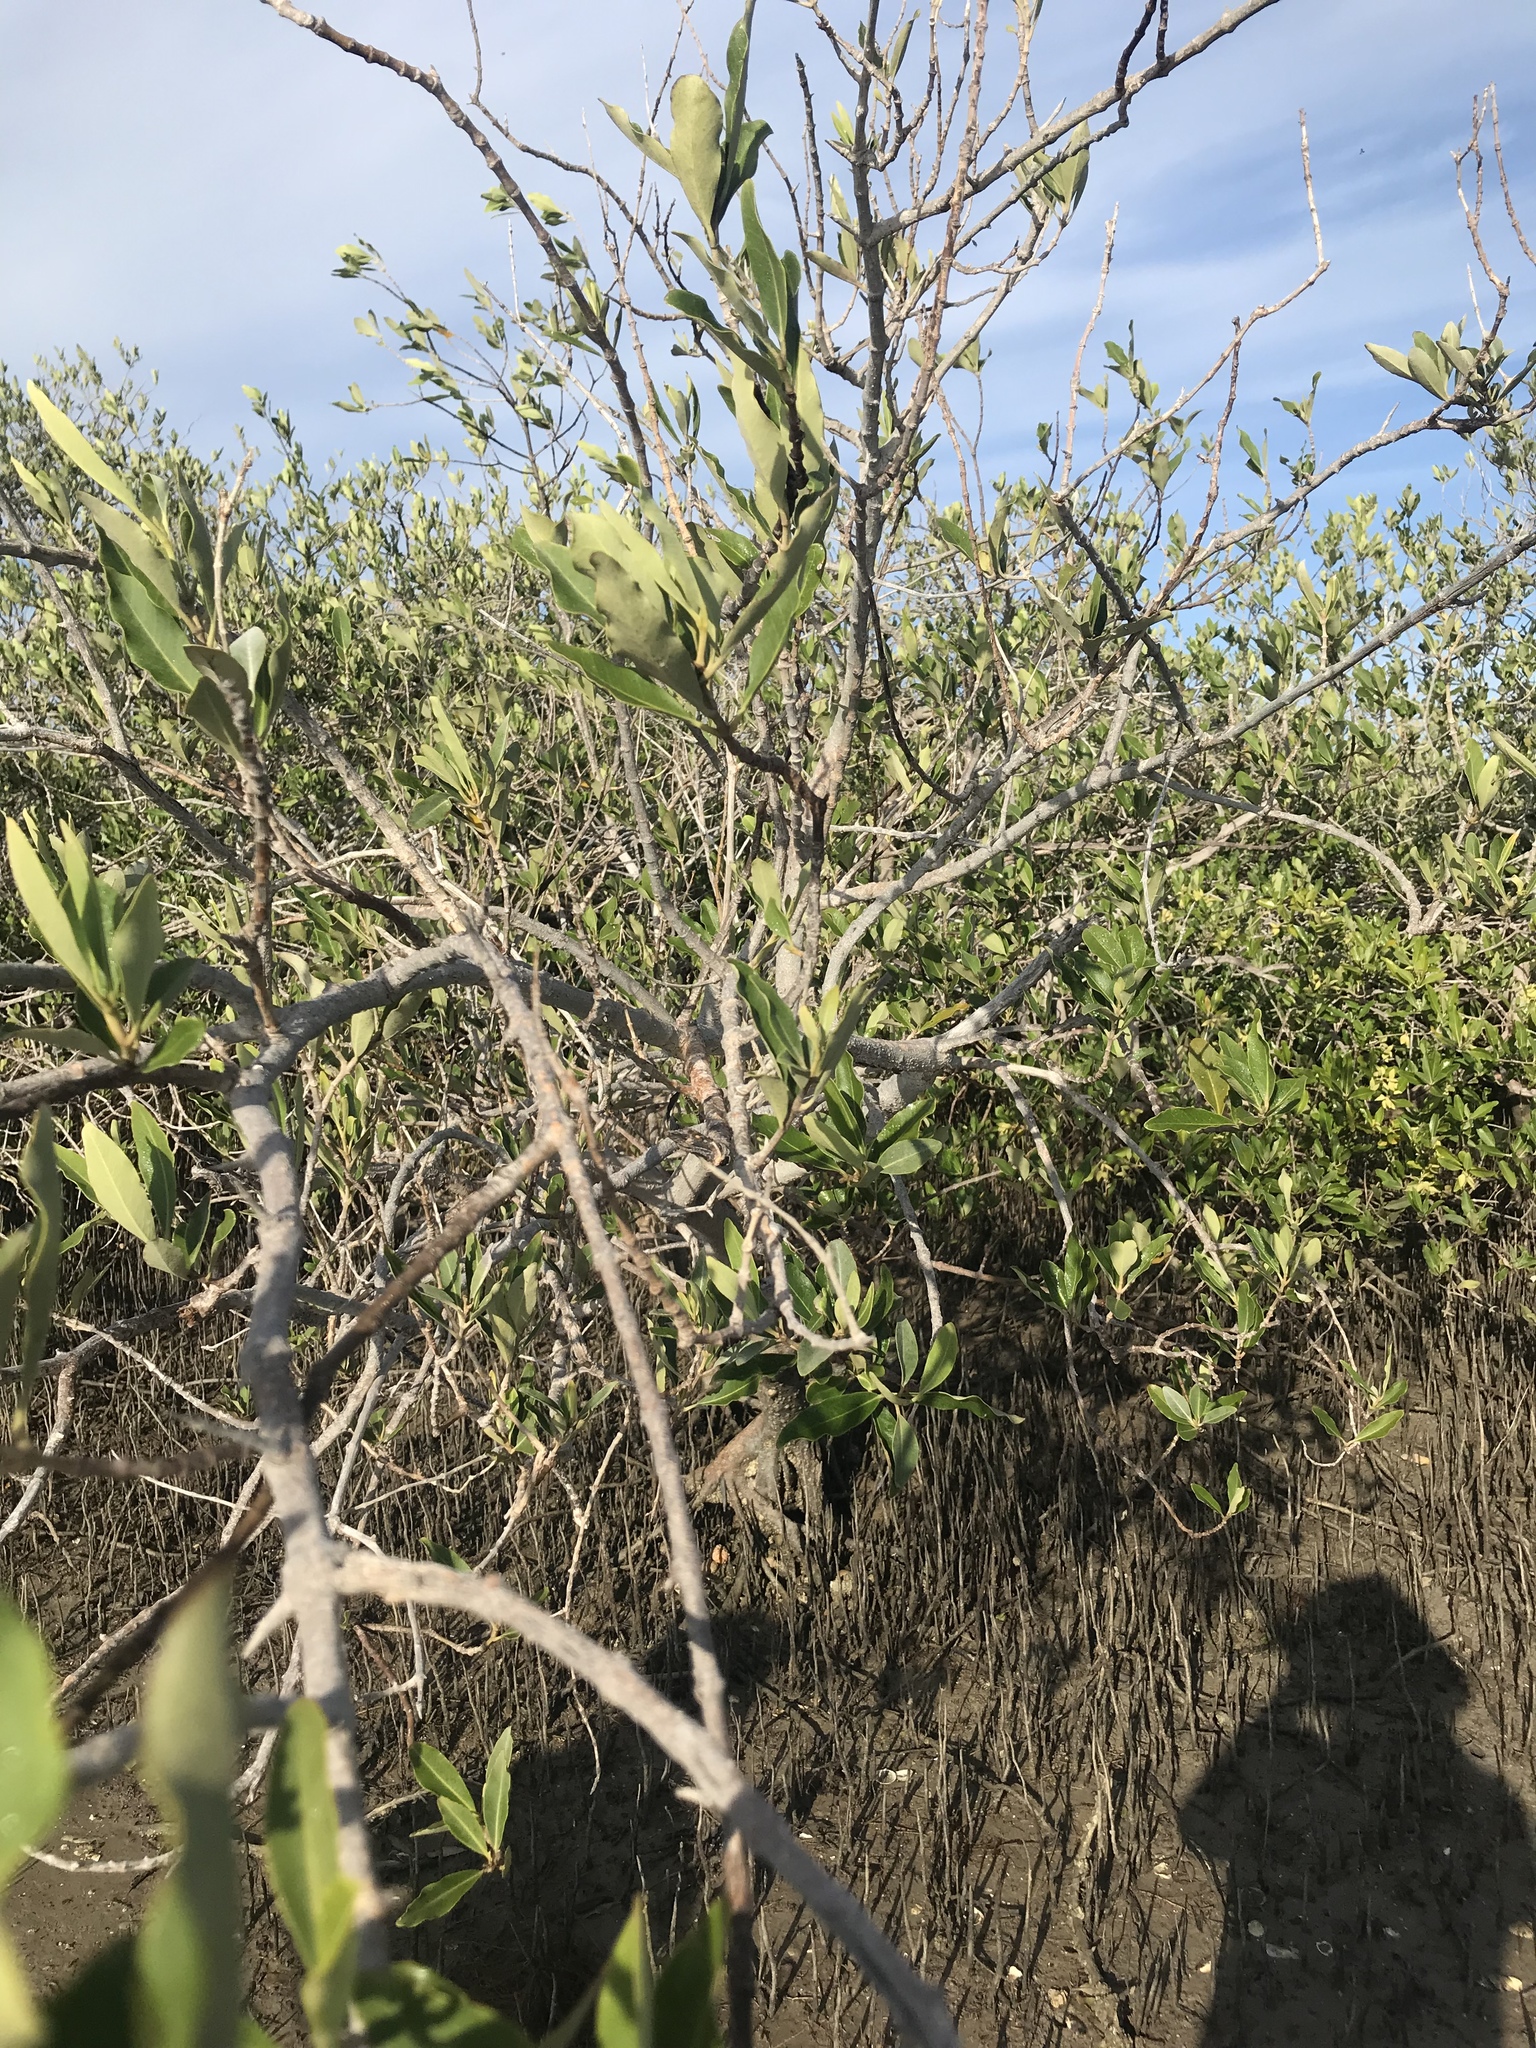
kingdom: Plantae
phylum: Tracheophyta
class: Magnoliopsida
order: Lamiales
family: Acanthaceae
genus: Avicennia
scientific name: Avicennia germinans
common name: Black mangrove
